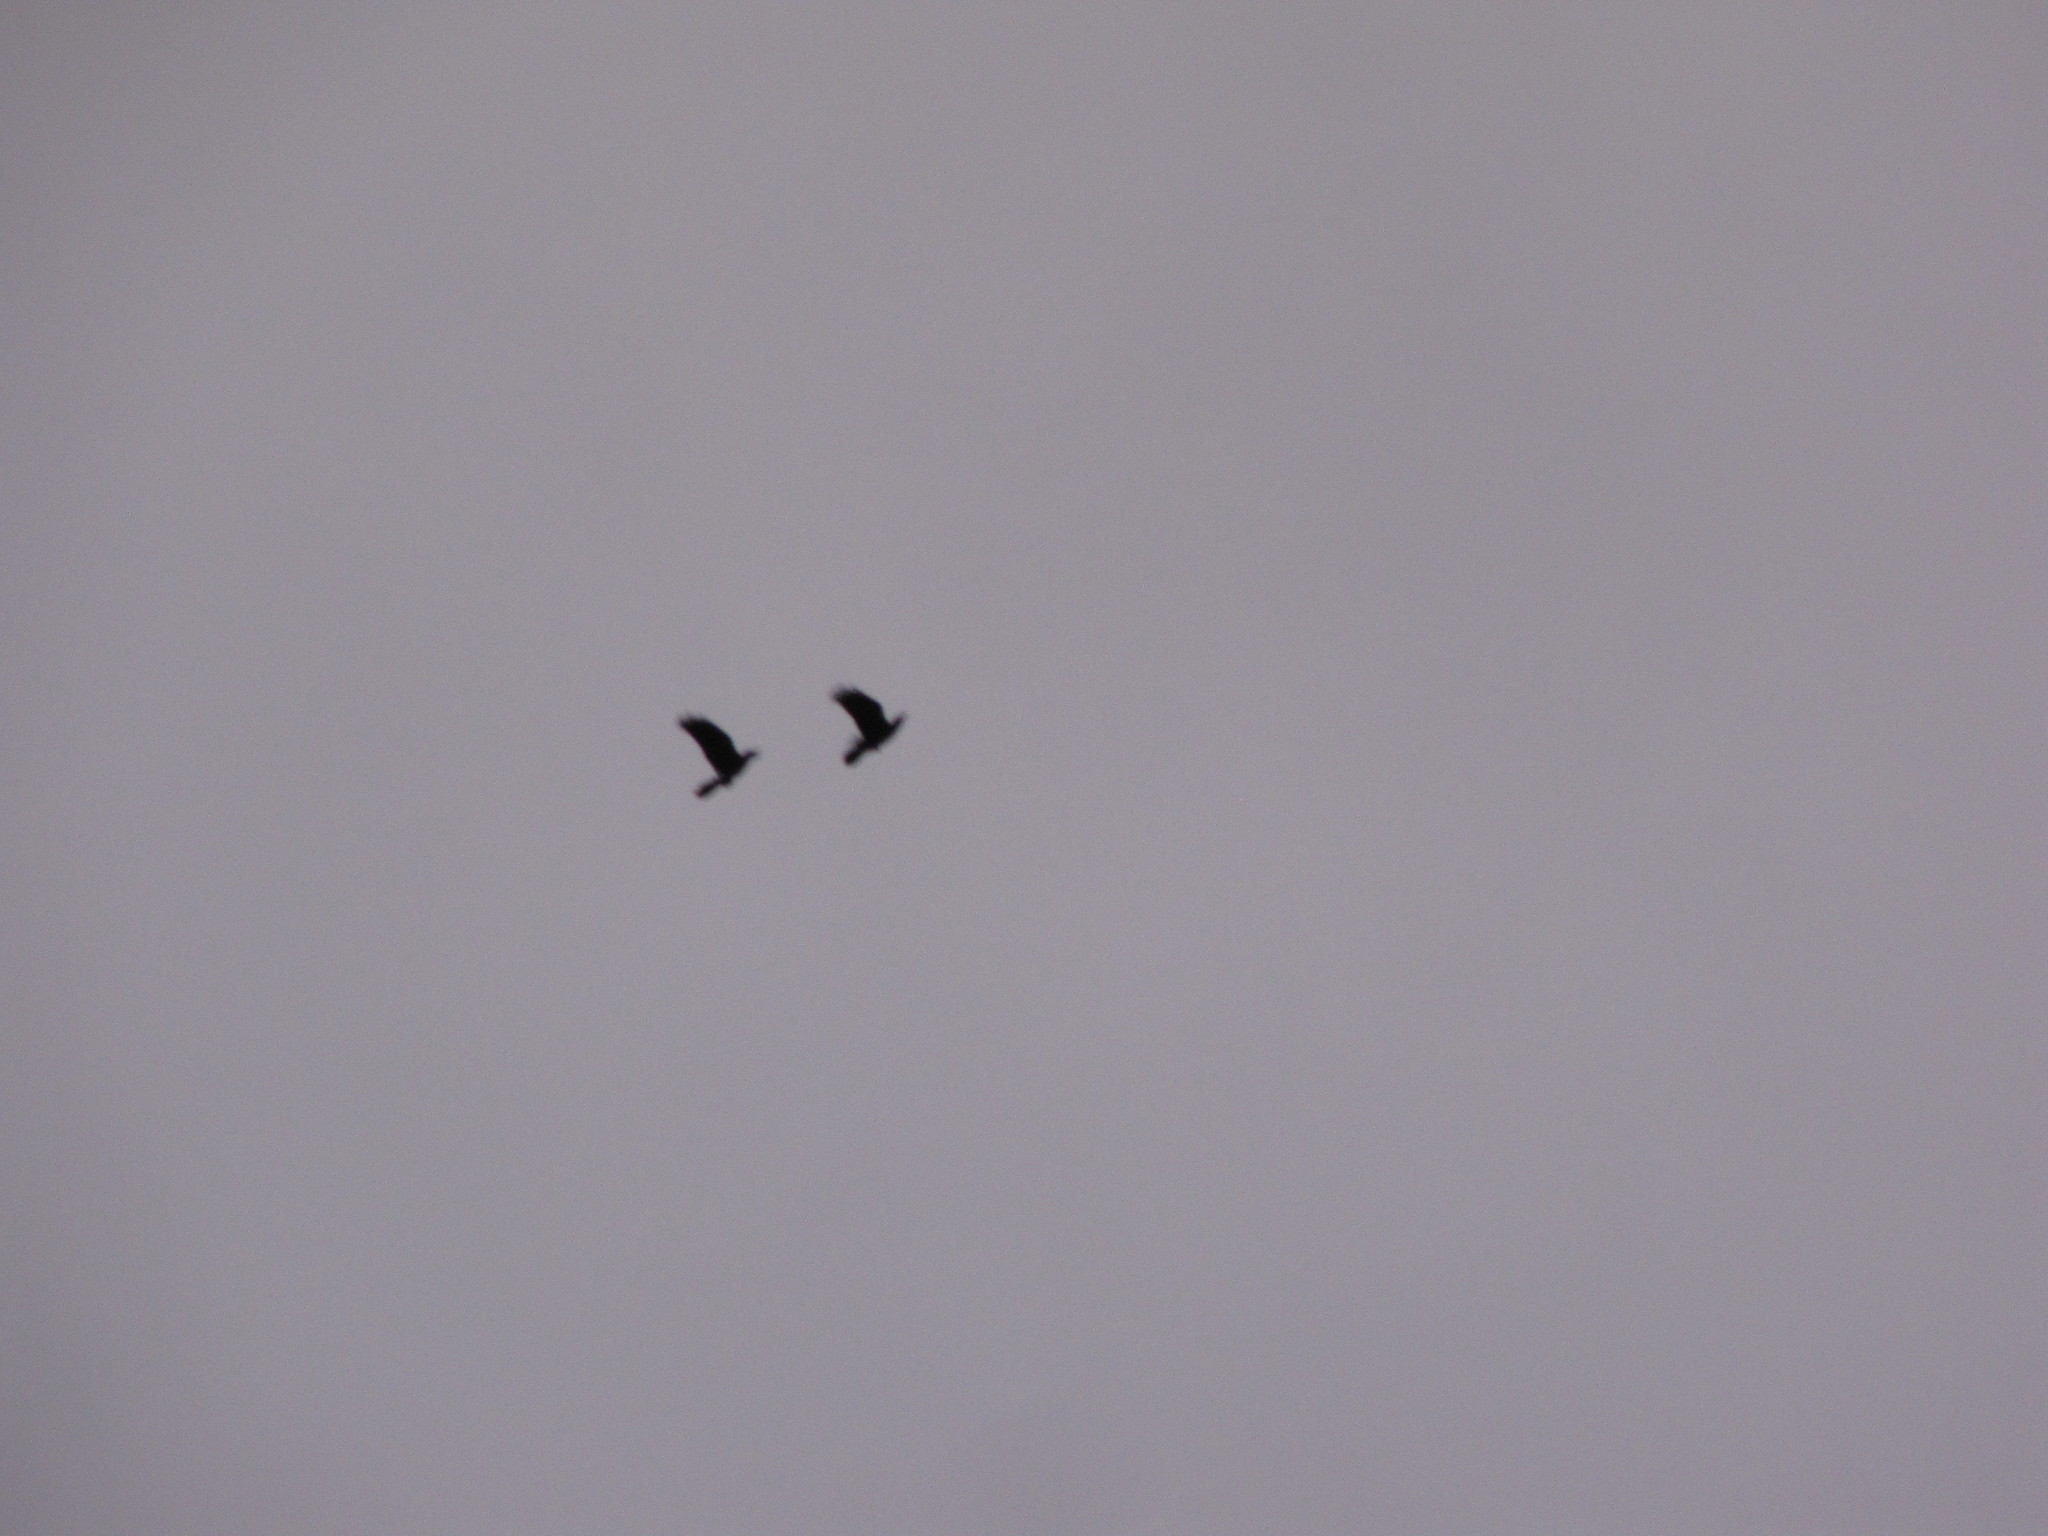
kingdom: Animalia
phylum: Chordata
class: Aves
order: Passeriformes
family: Corvidae
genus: Corvus
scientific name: Corvus brachyrhynchos
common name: American crow
